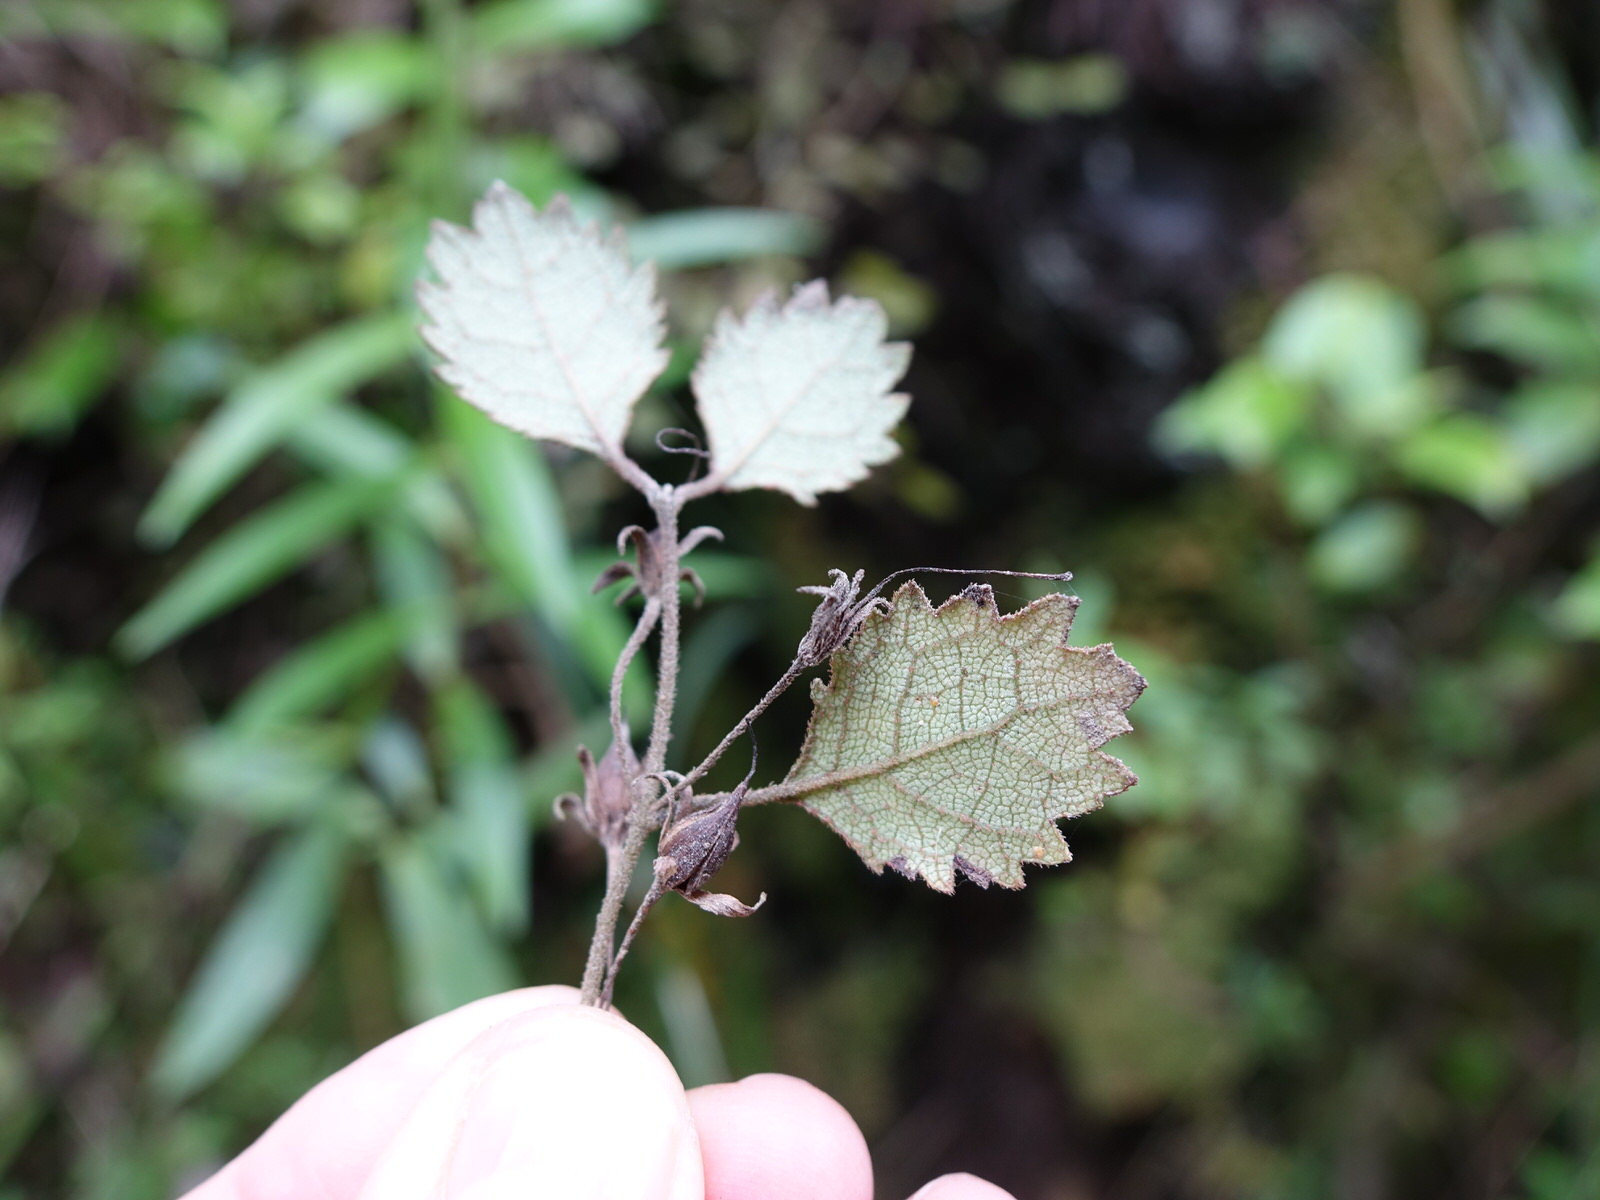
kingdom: Plantae
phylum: Tracheophyta
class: Magnoliopsida
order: Lamiales
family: Gesneriaceae
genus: Rhabdothamnus
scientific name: Rhabdothamnus solandri
